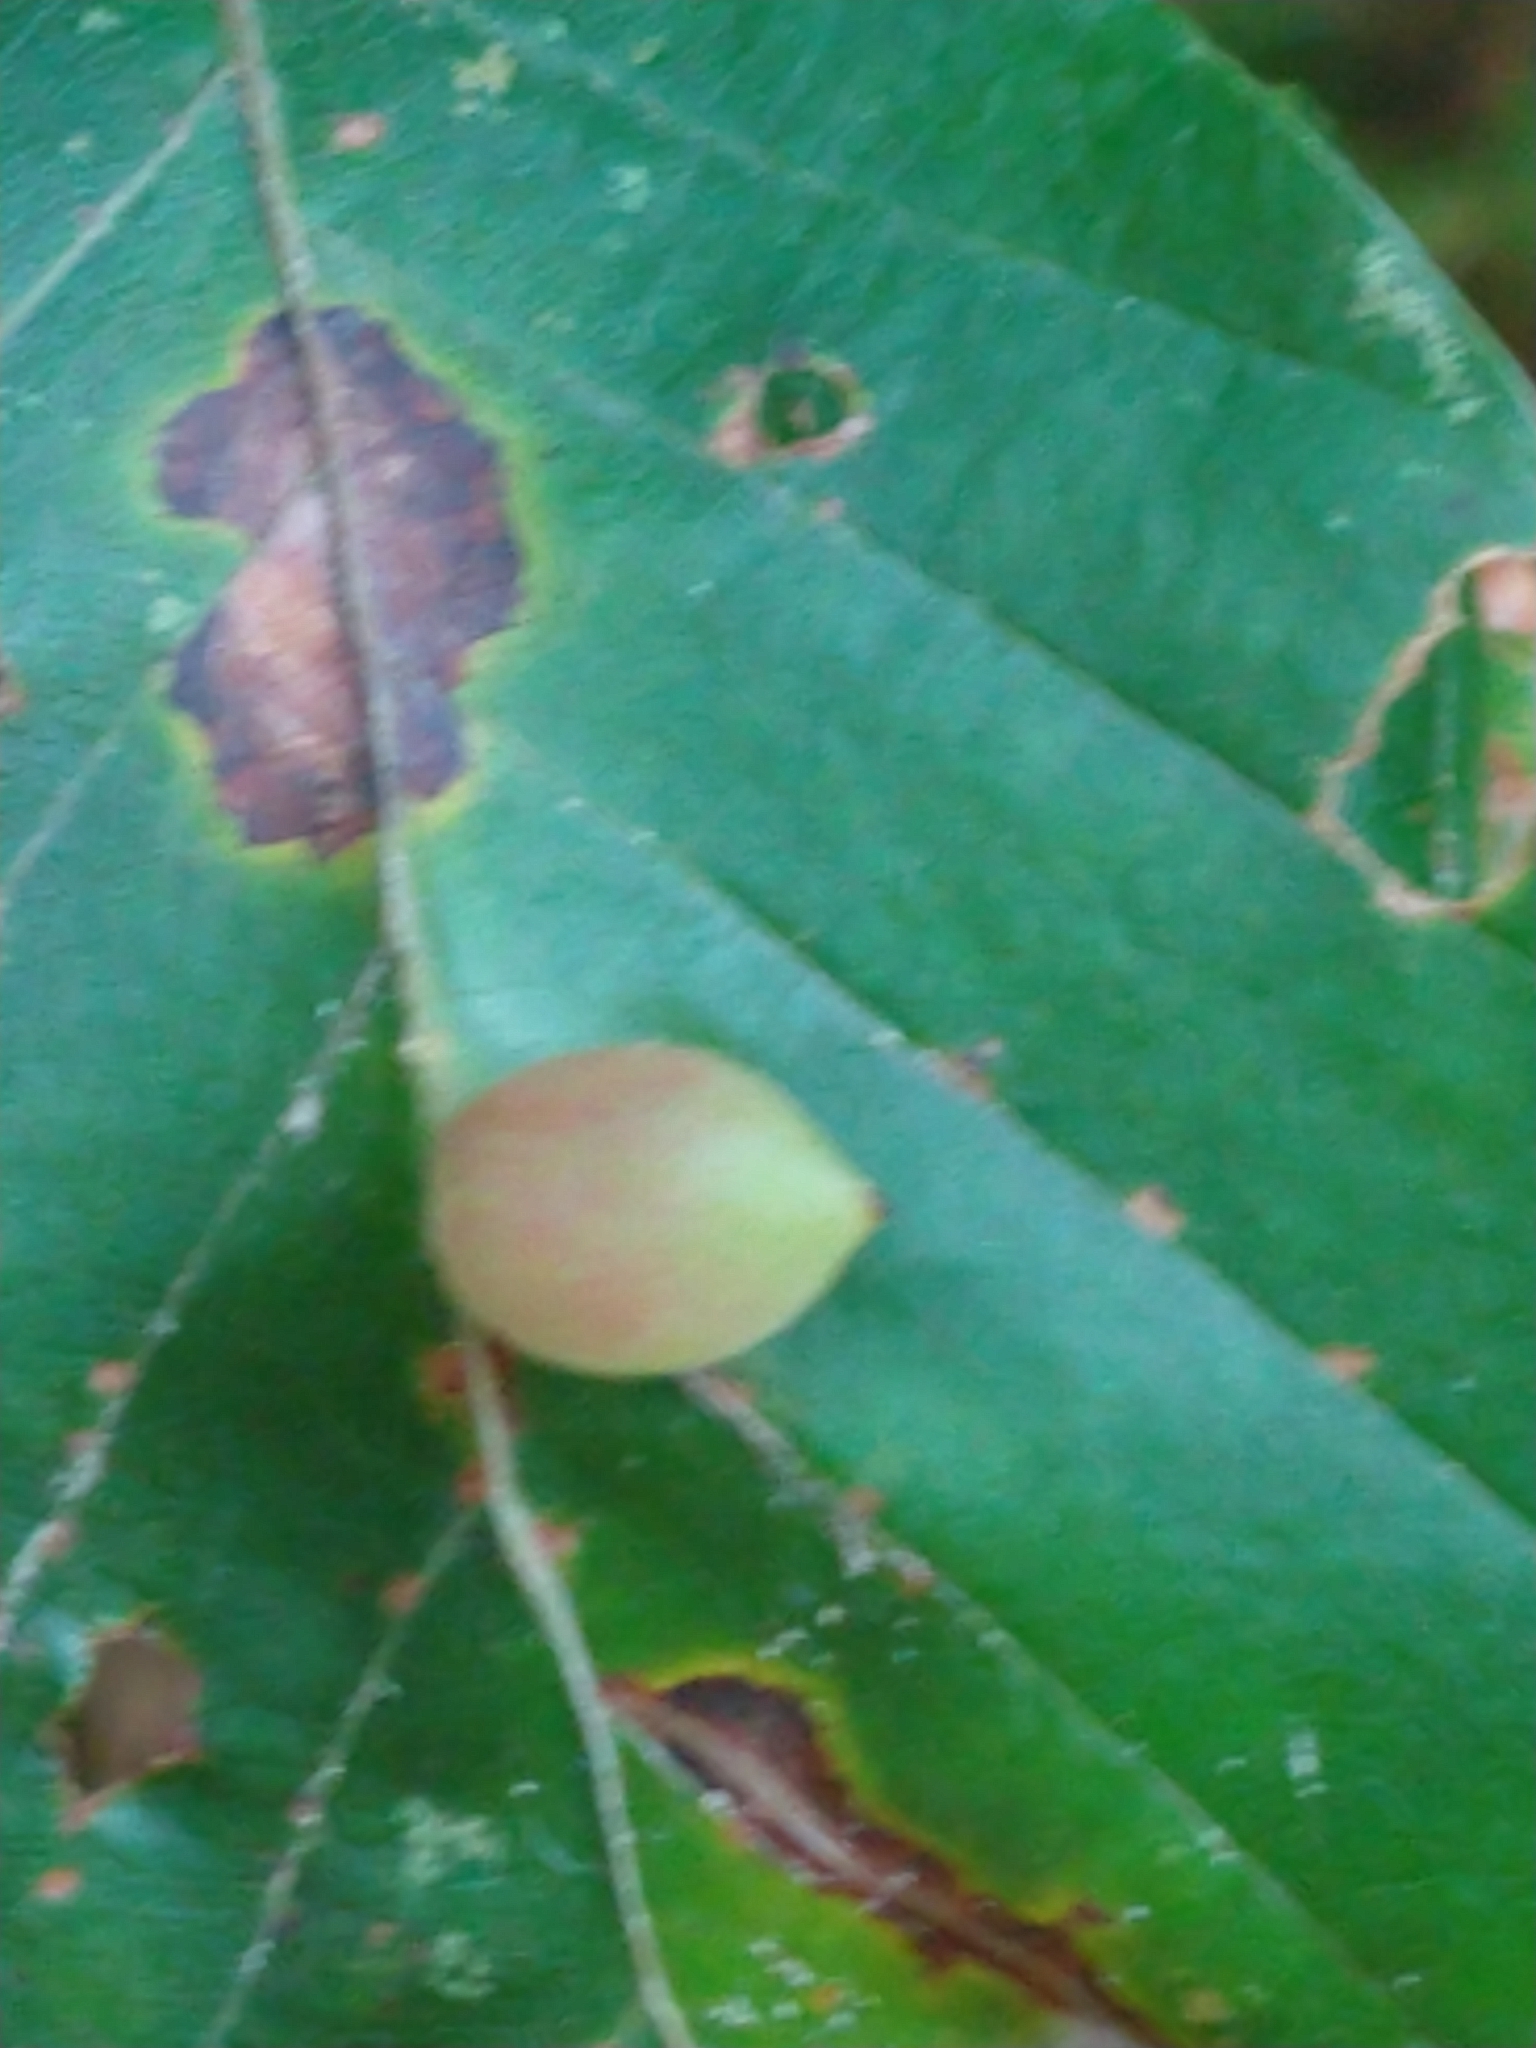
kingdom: Animalia
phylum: Arthropoda
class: Insecta
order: Diptera
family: Cecidomyiidae
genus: Mikiola
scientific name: Mikiola fagi
